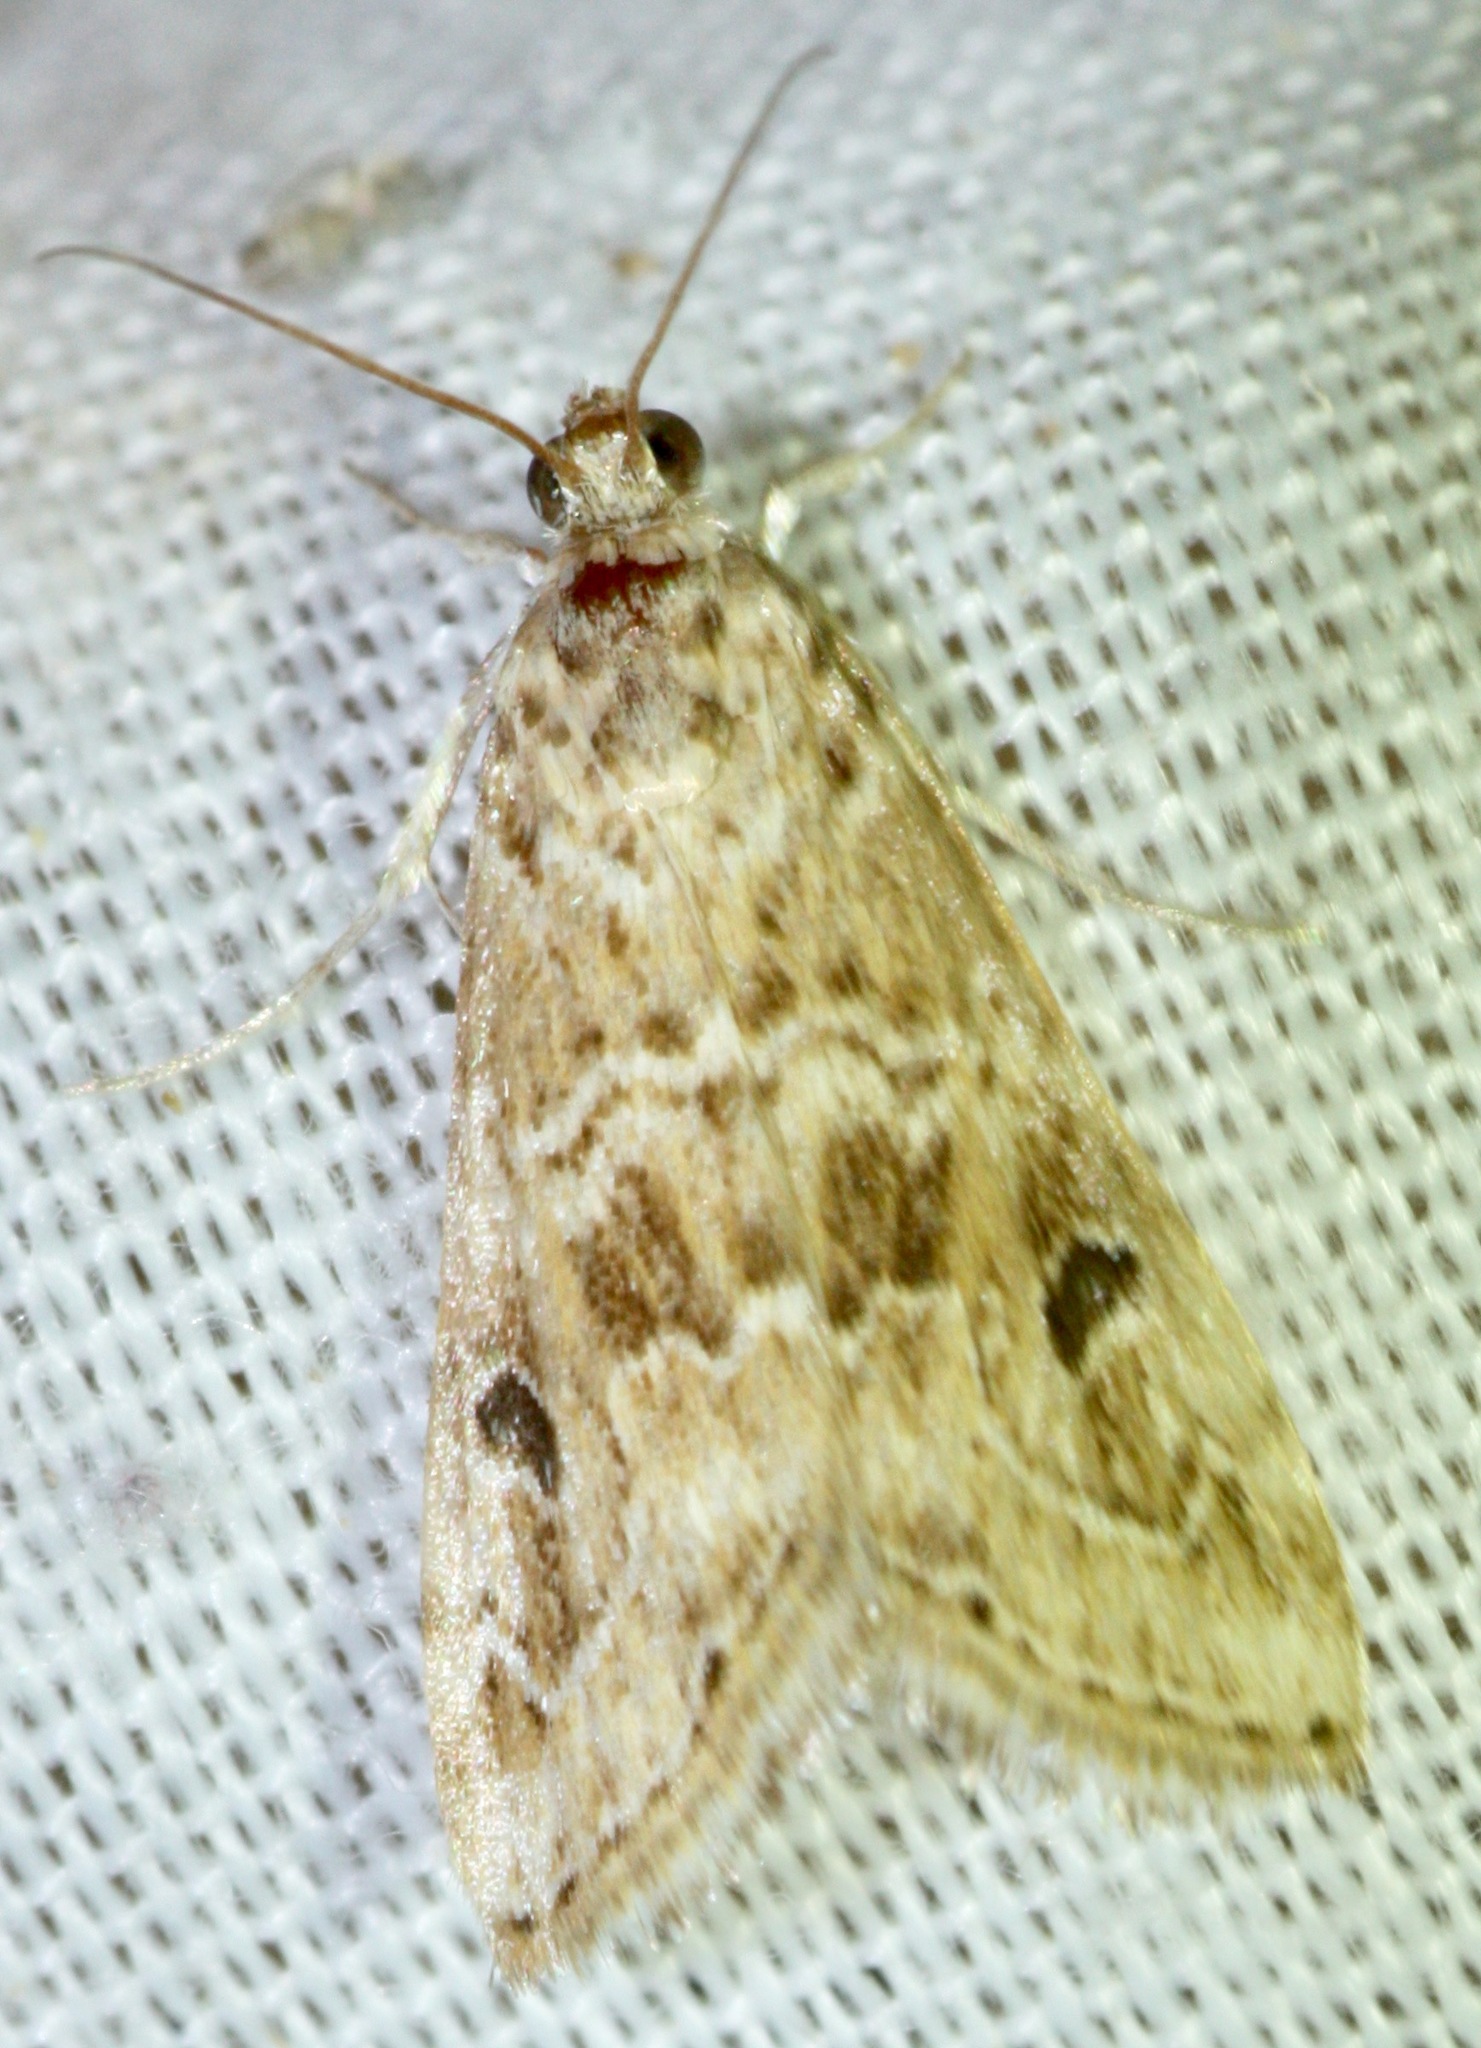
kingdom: Animalia
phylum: Arthropoda
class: Insecta
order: Lepidoptera
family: Crambidae
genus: Hellula
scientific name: Hellula rogatalis
